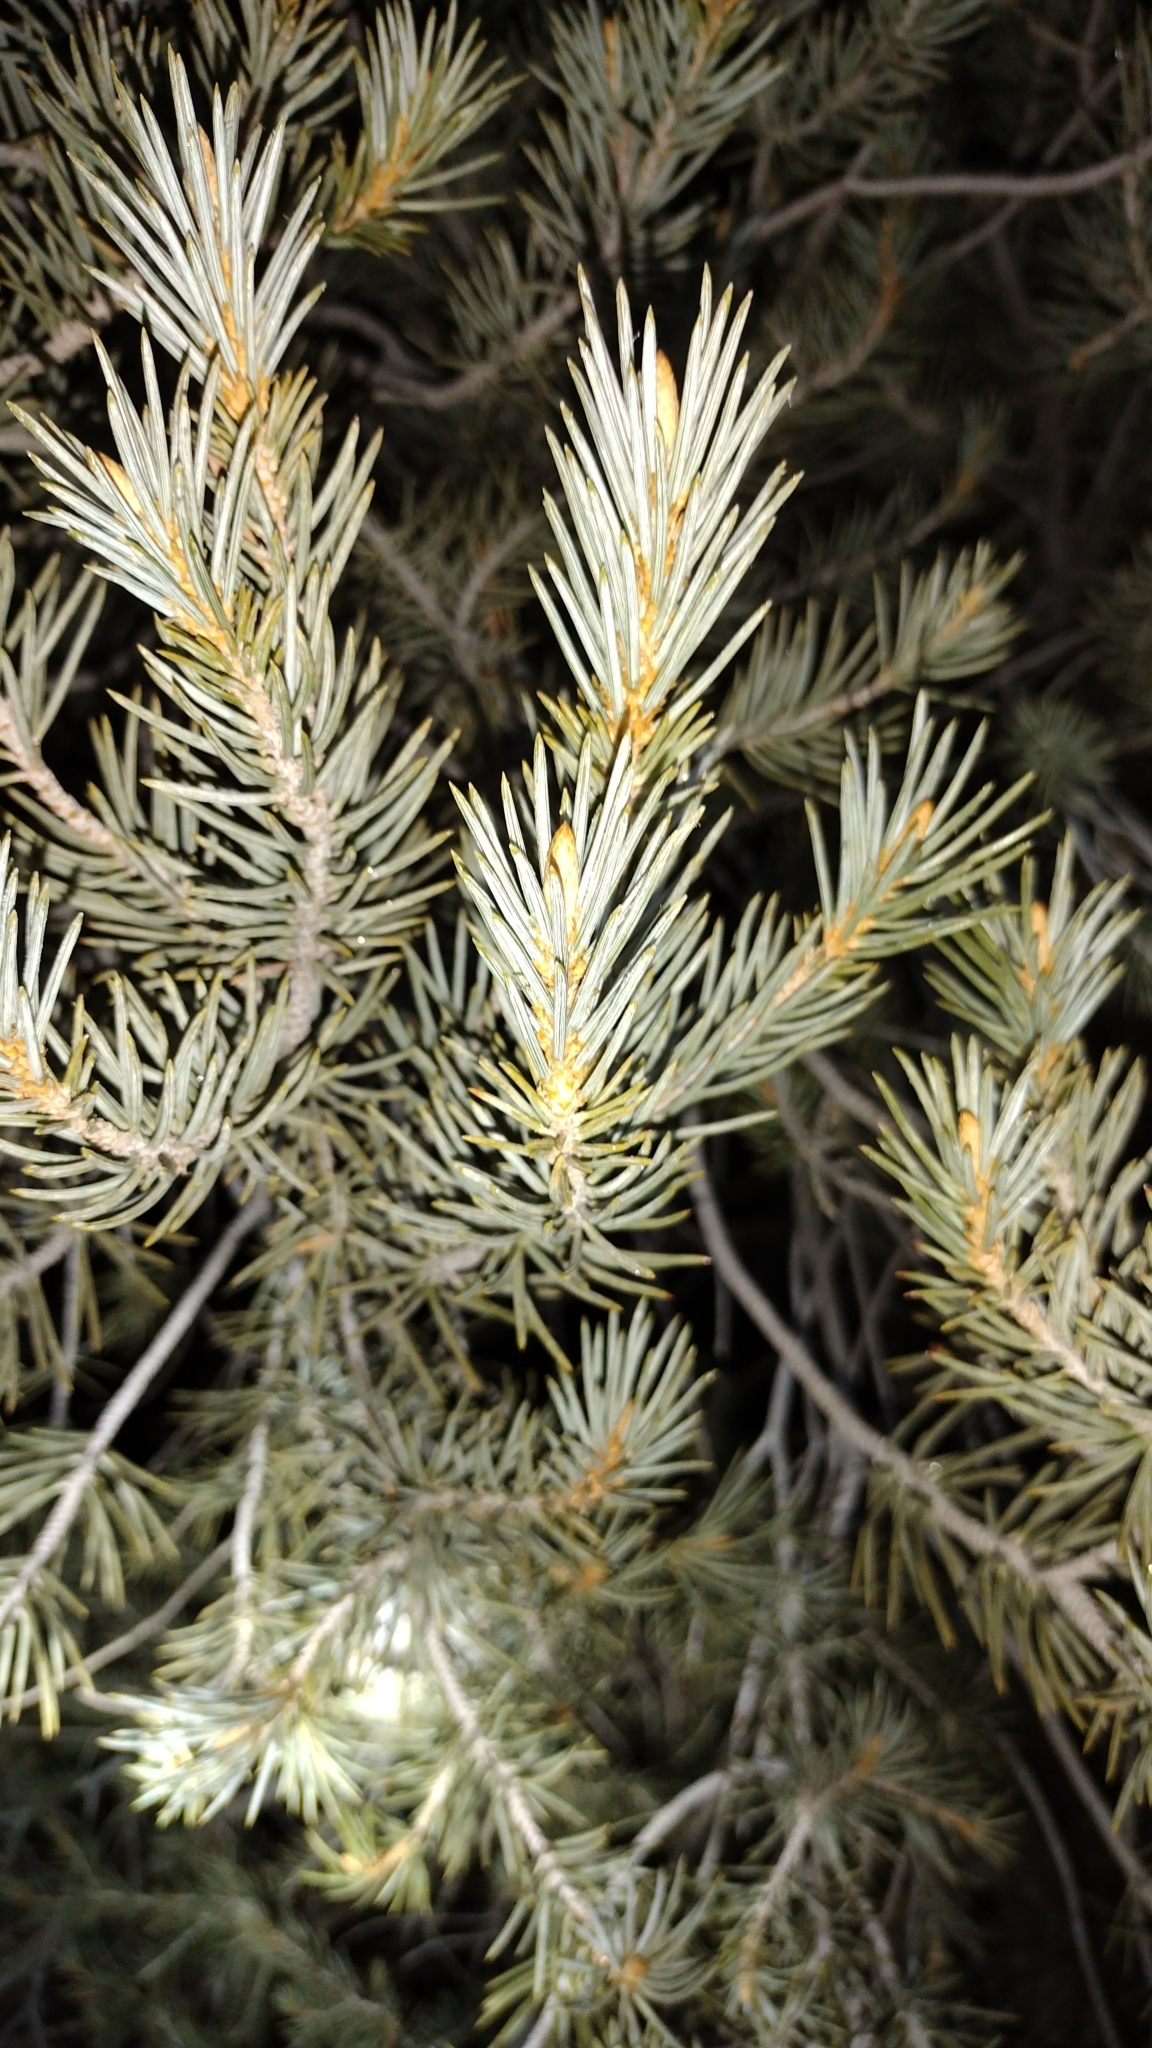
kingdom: Plantae
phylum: Tracheophyta
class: Pinopsida
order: Pinales
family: Pinaceae
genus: Pinus
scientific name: Pinus monophylla
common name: One-leaved nut pine
